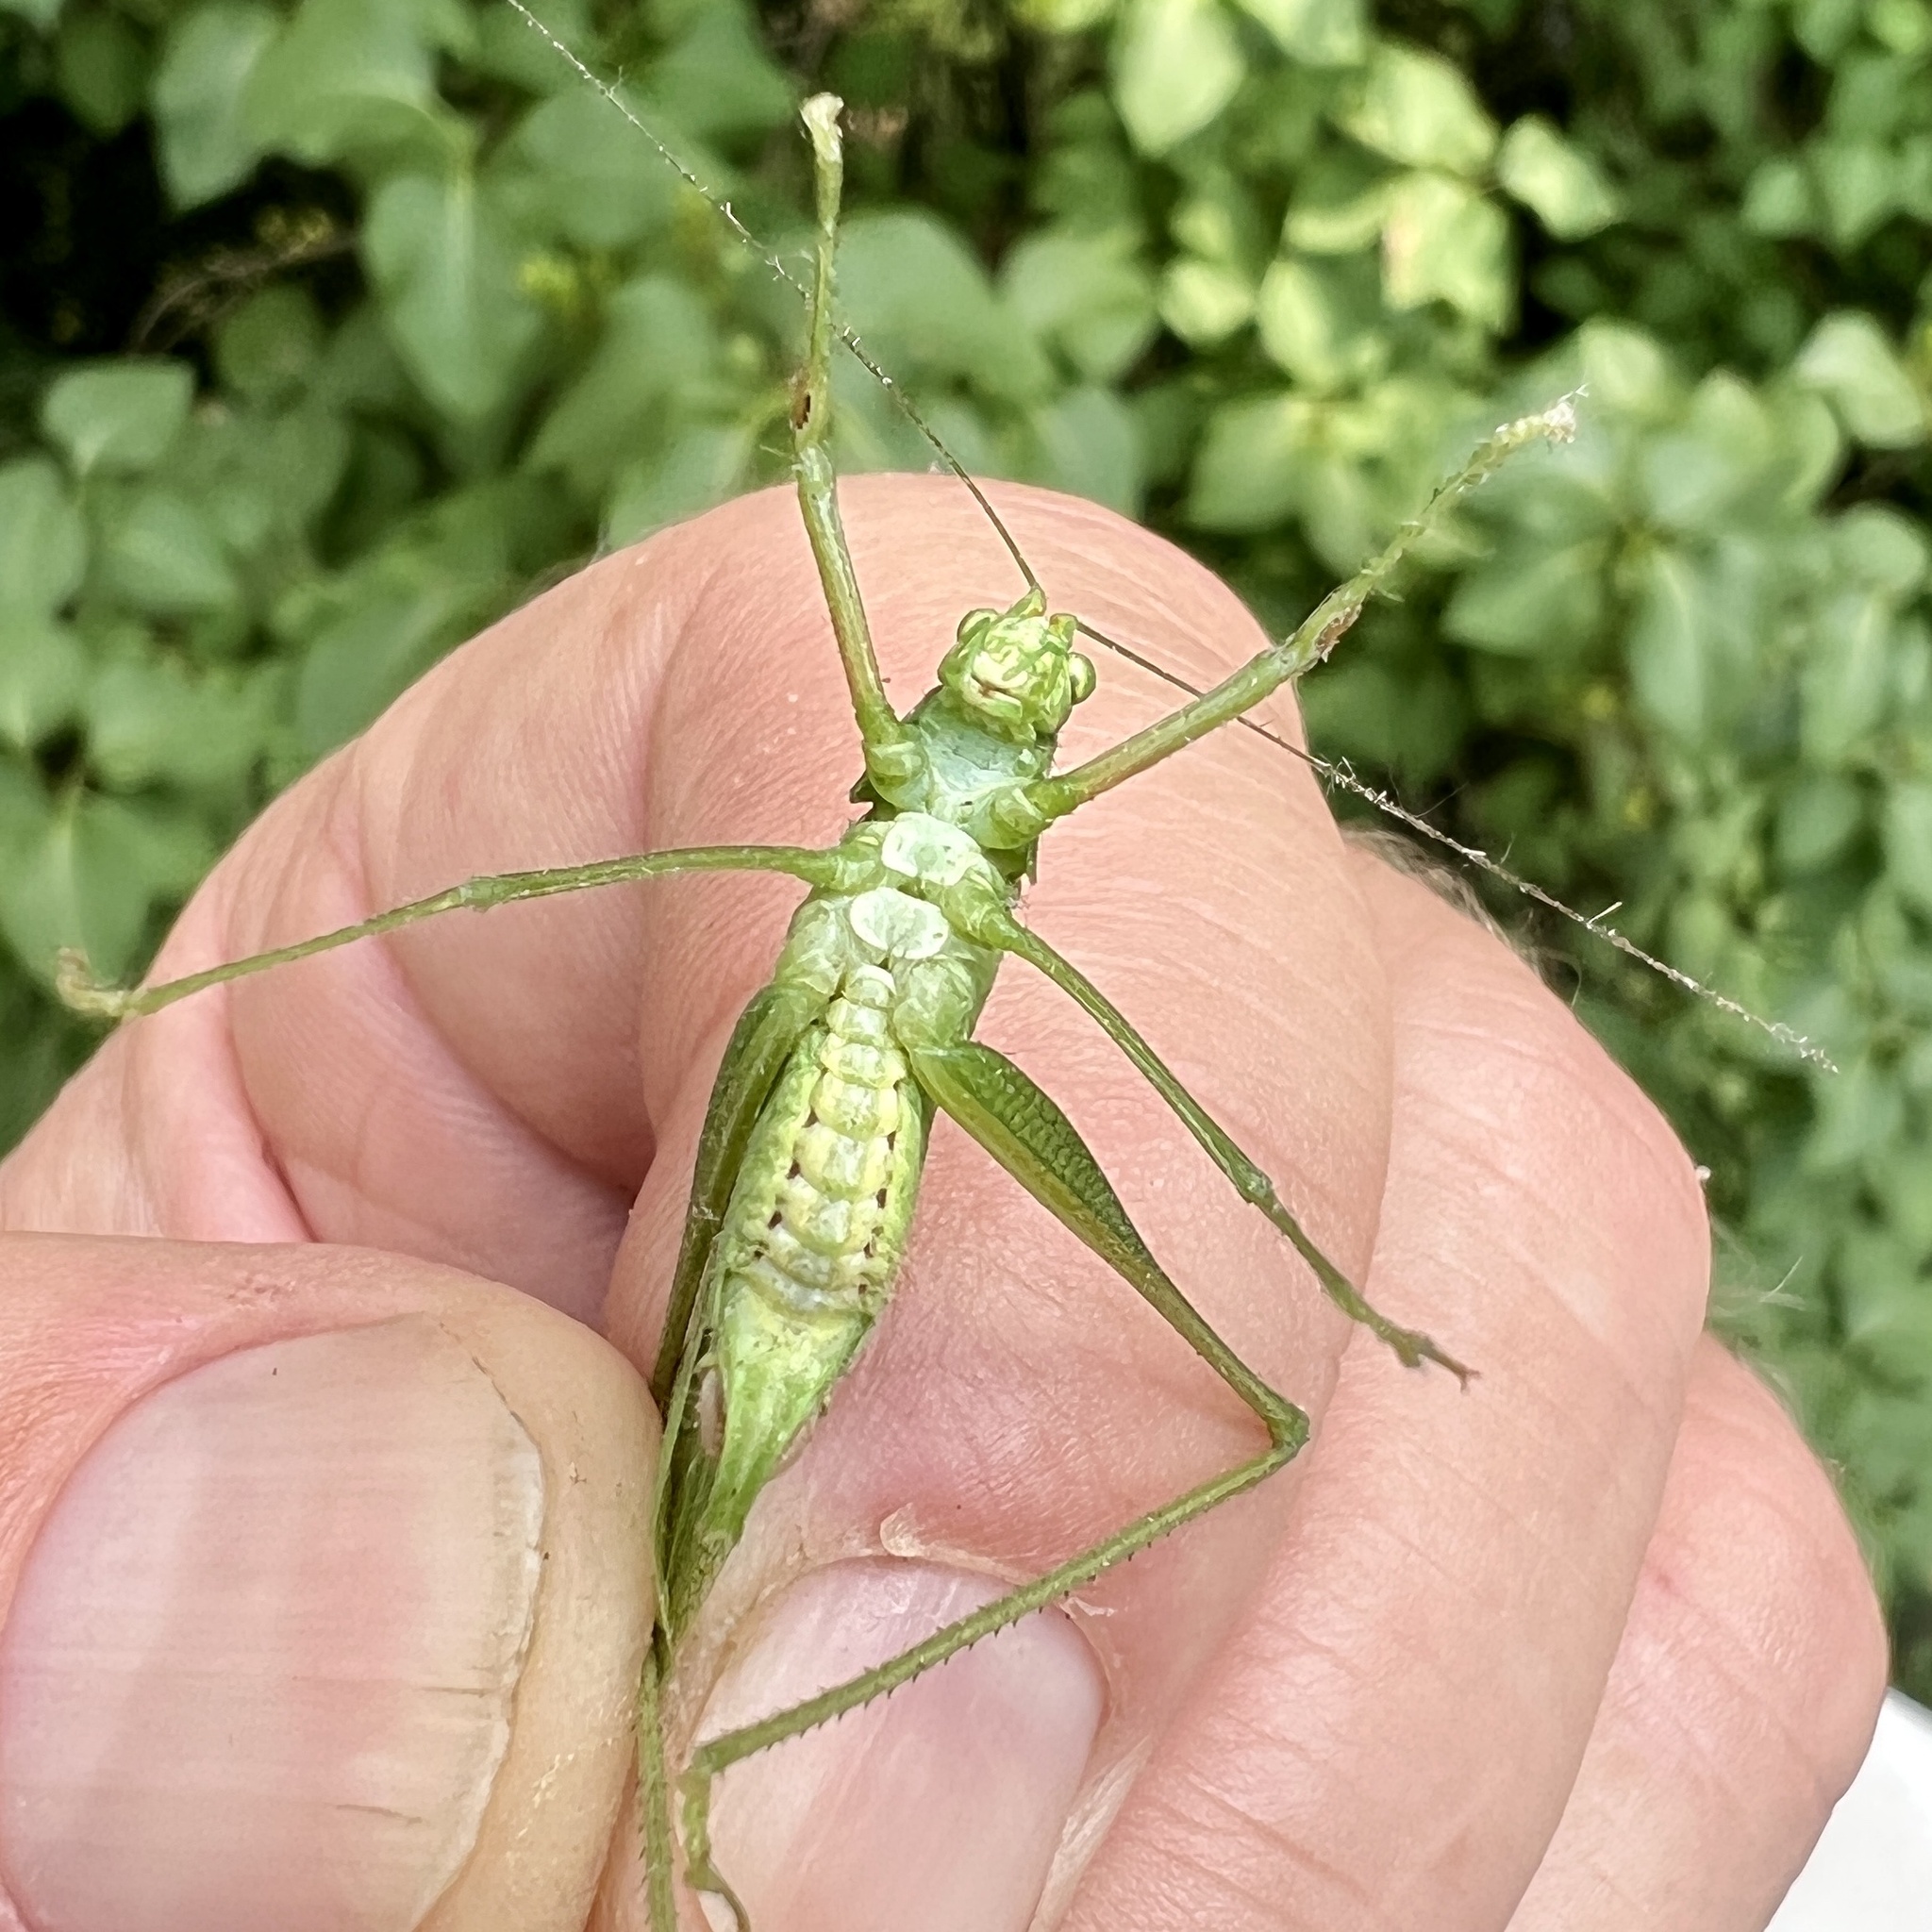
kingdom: Animalia
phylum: Arthropoda
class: Insecta
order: Orthoptera
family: Tettigoniidae
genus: Scudderia
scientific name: Scudderia septentrionalis
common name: Northern bush-katydid
